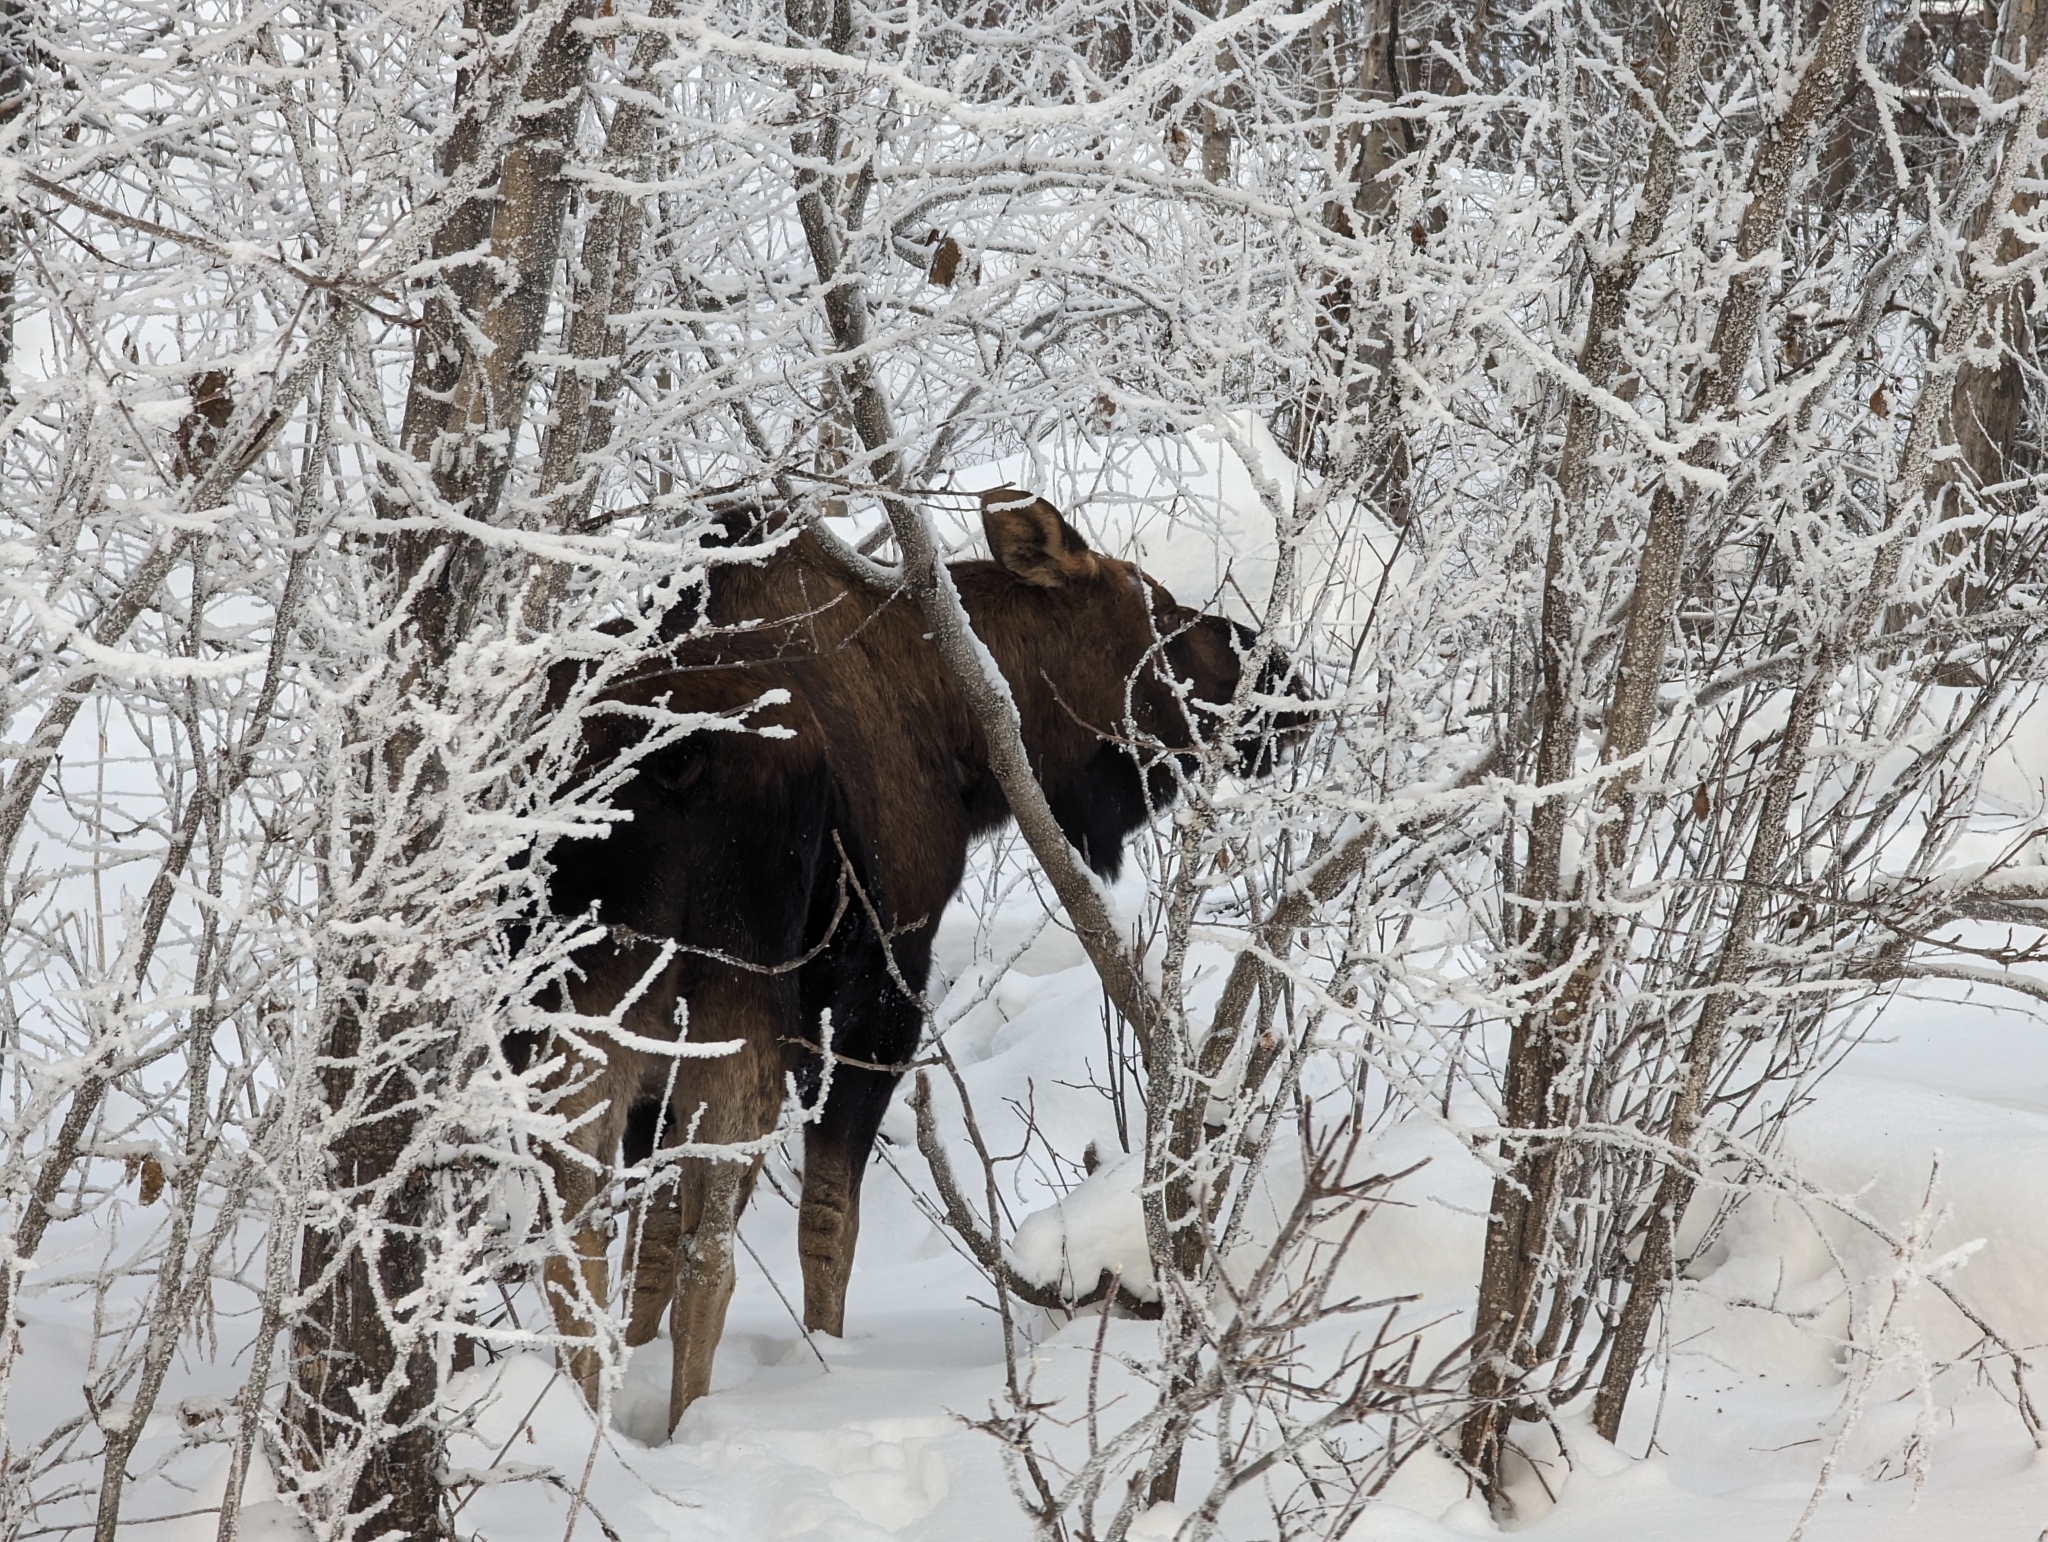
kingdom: Animalia
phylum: Chordata
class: Mammalia
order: Artiodactyla
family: Cervidae
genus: Alces
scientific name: Alces alces
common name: Moose
